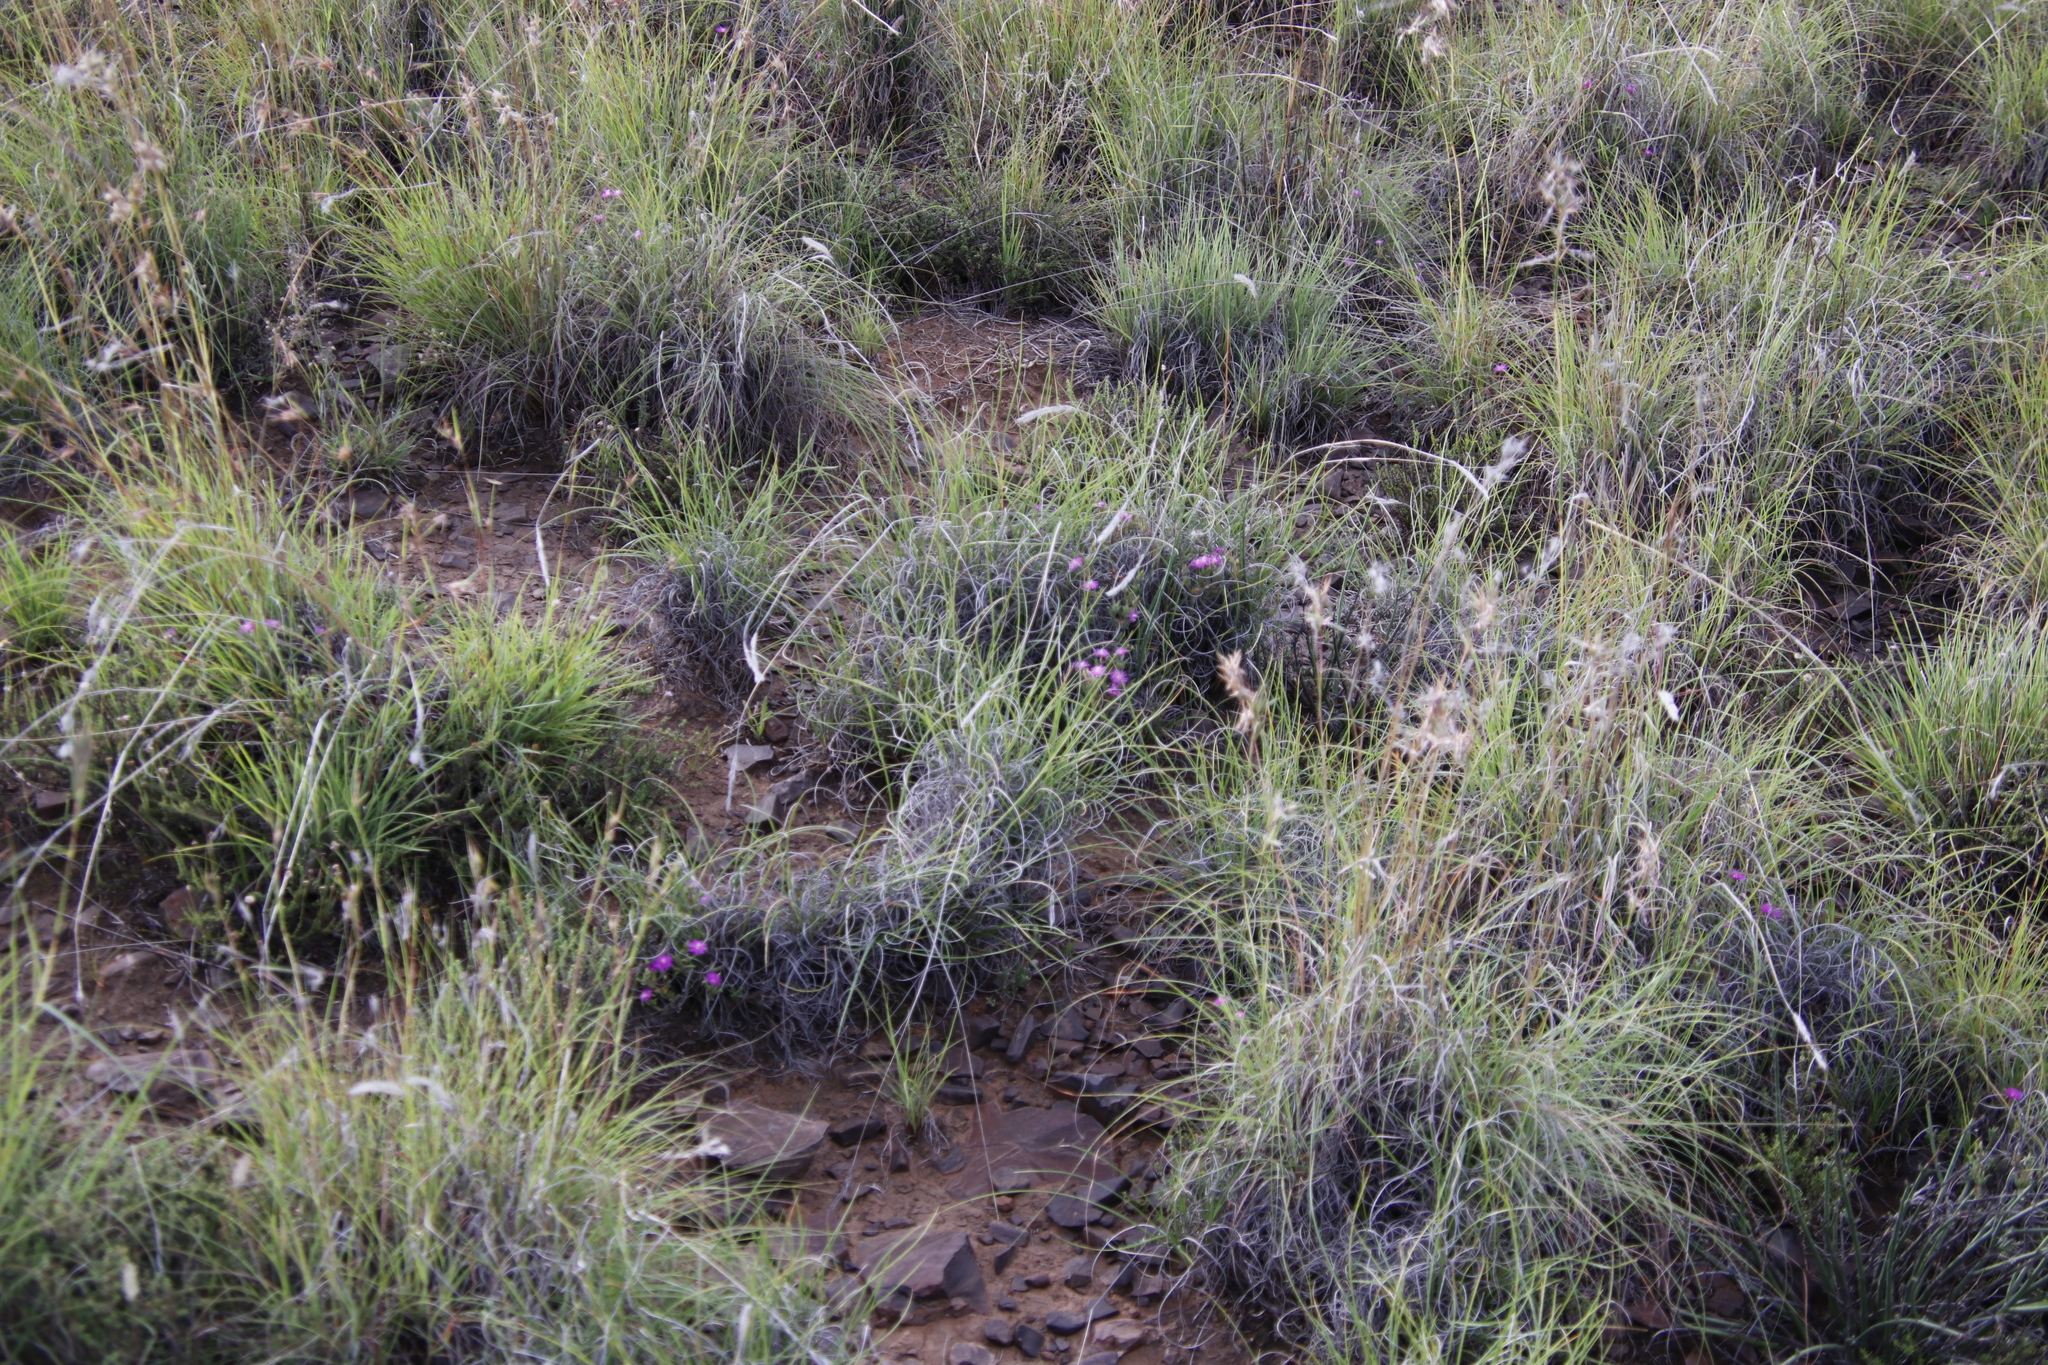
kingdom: Plantae
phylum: Tracheophyta
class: Magnoliopsida
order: Caryophyllales
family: Aizoaceae
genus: Trichodiadema
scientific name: Trichodiadema pomeridianum
